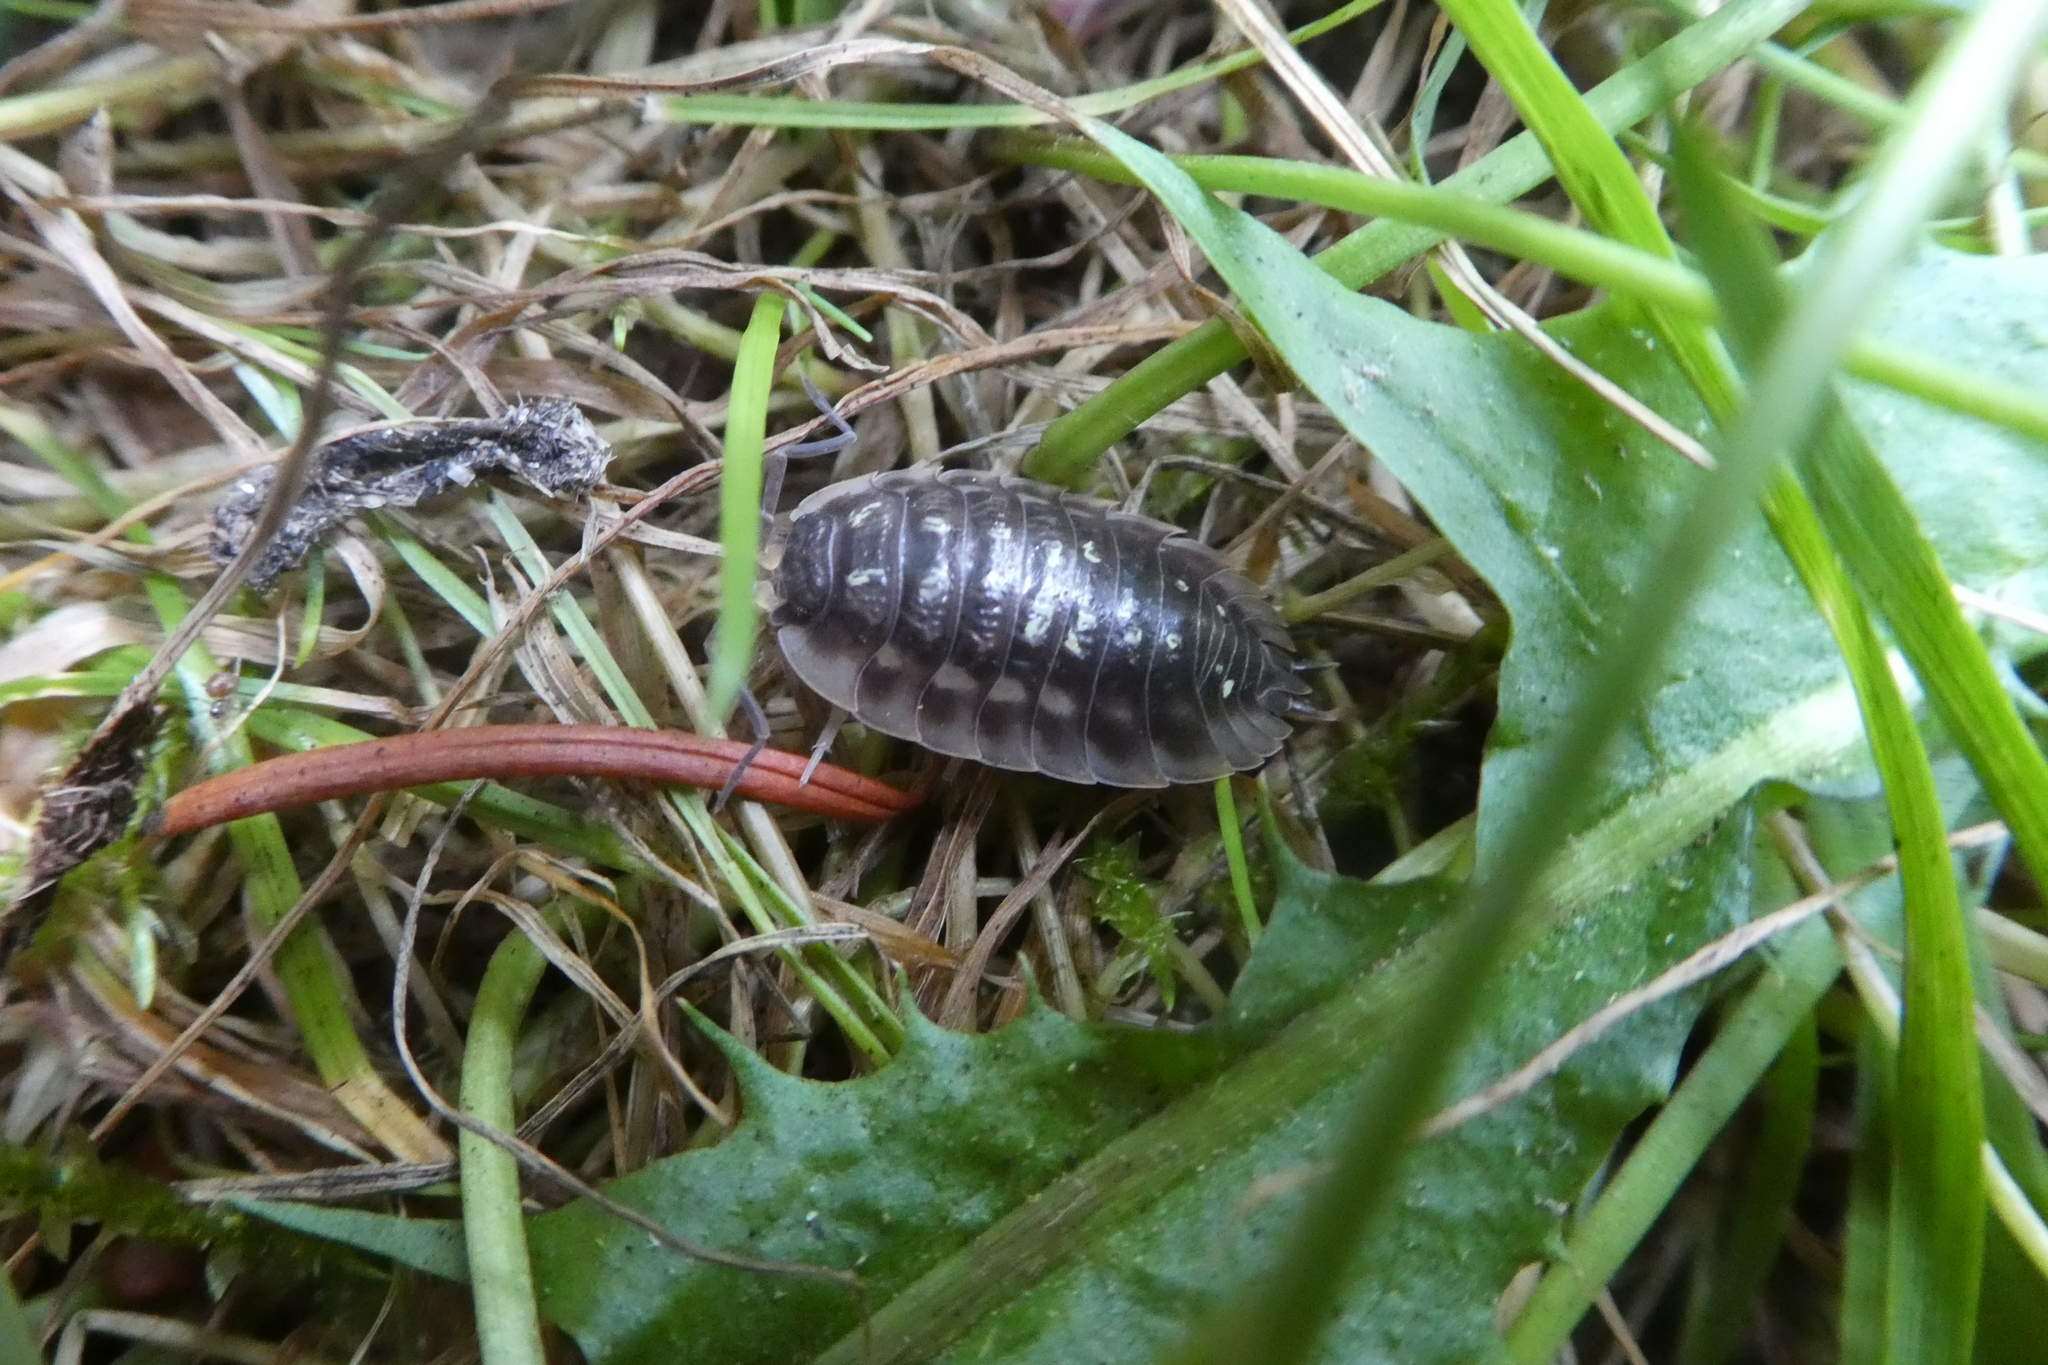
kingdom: Animalia
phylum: Arthropoda
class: Malacostraca
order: Isopoda
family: Oniscidae
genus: Oniscus
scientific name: Oniscus asellus
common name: Common shiny woodlouse
